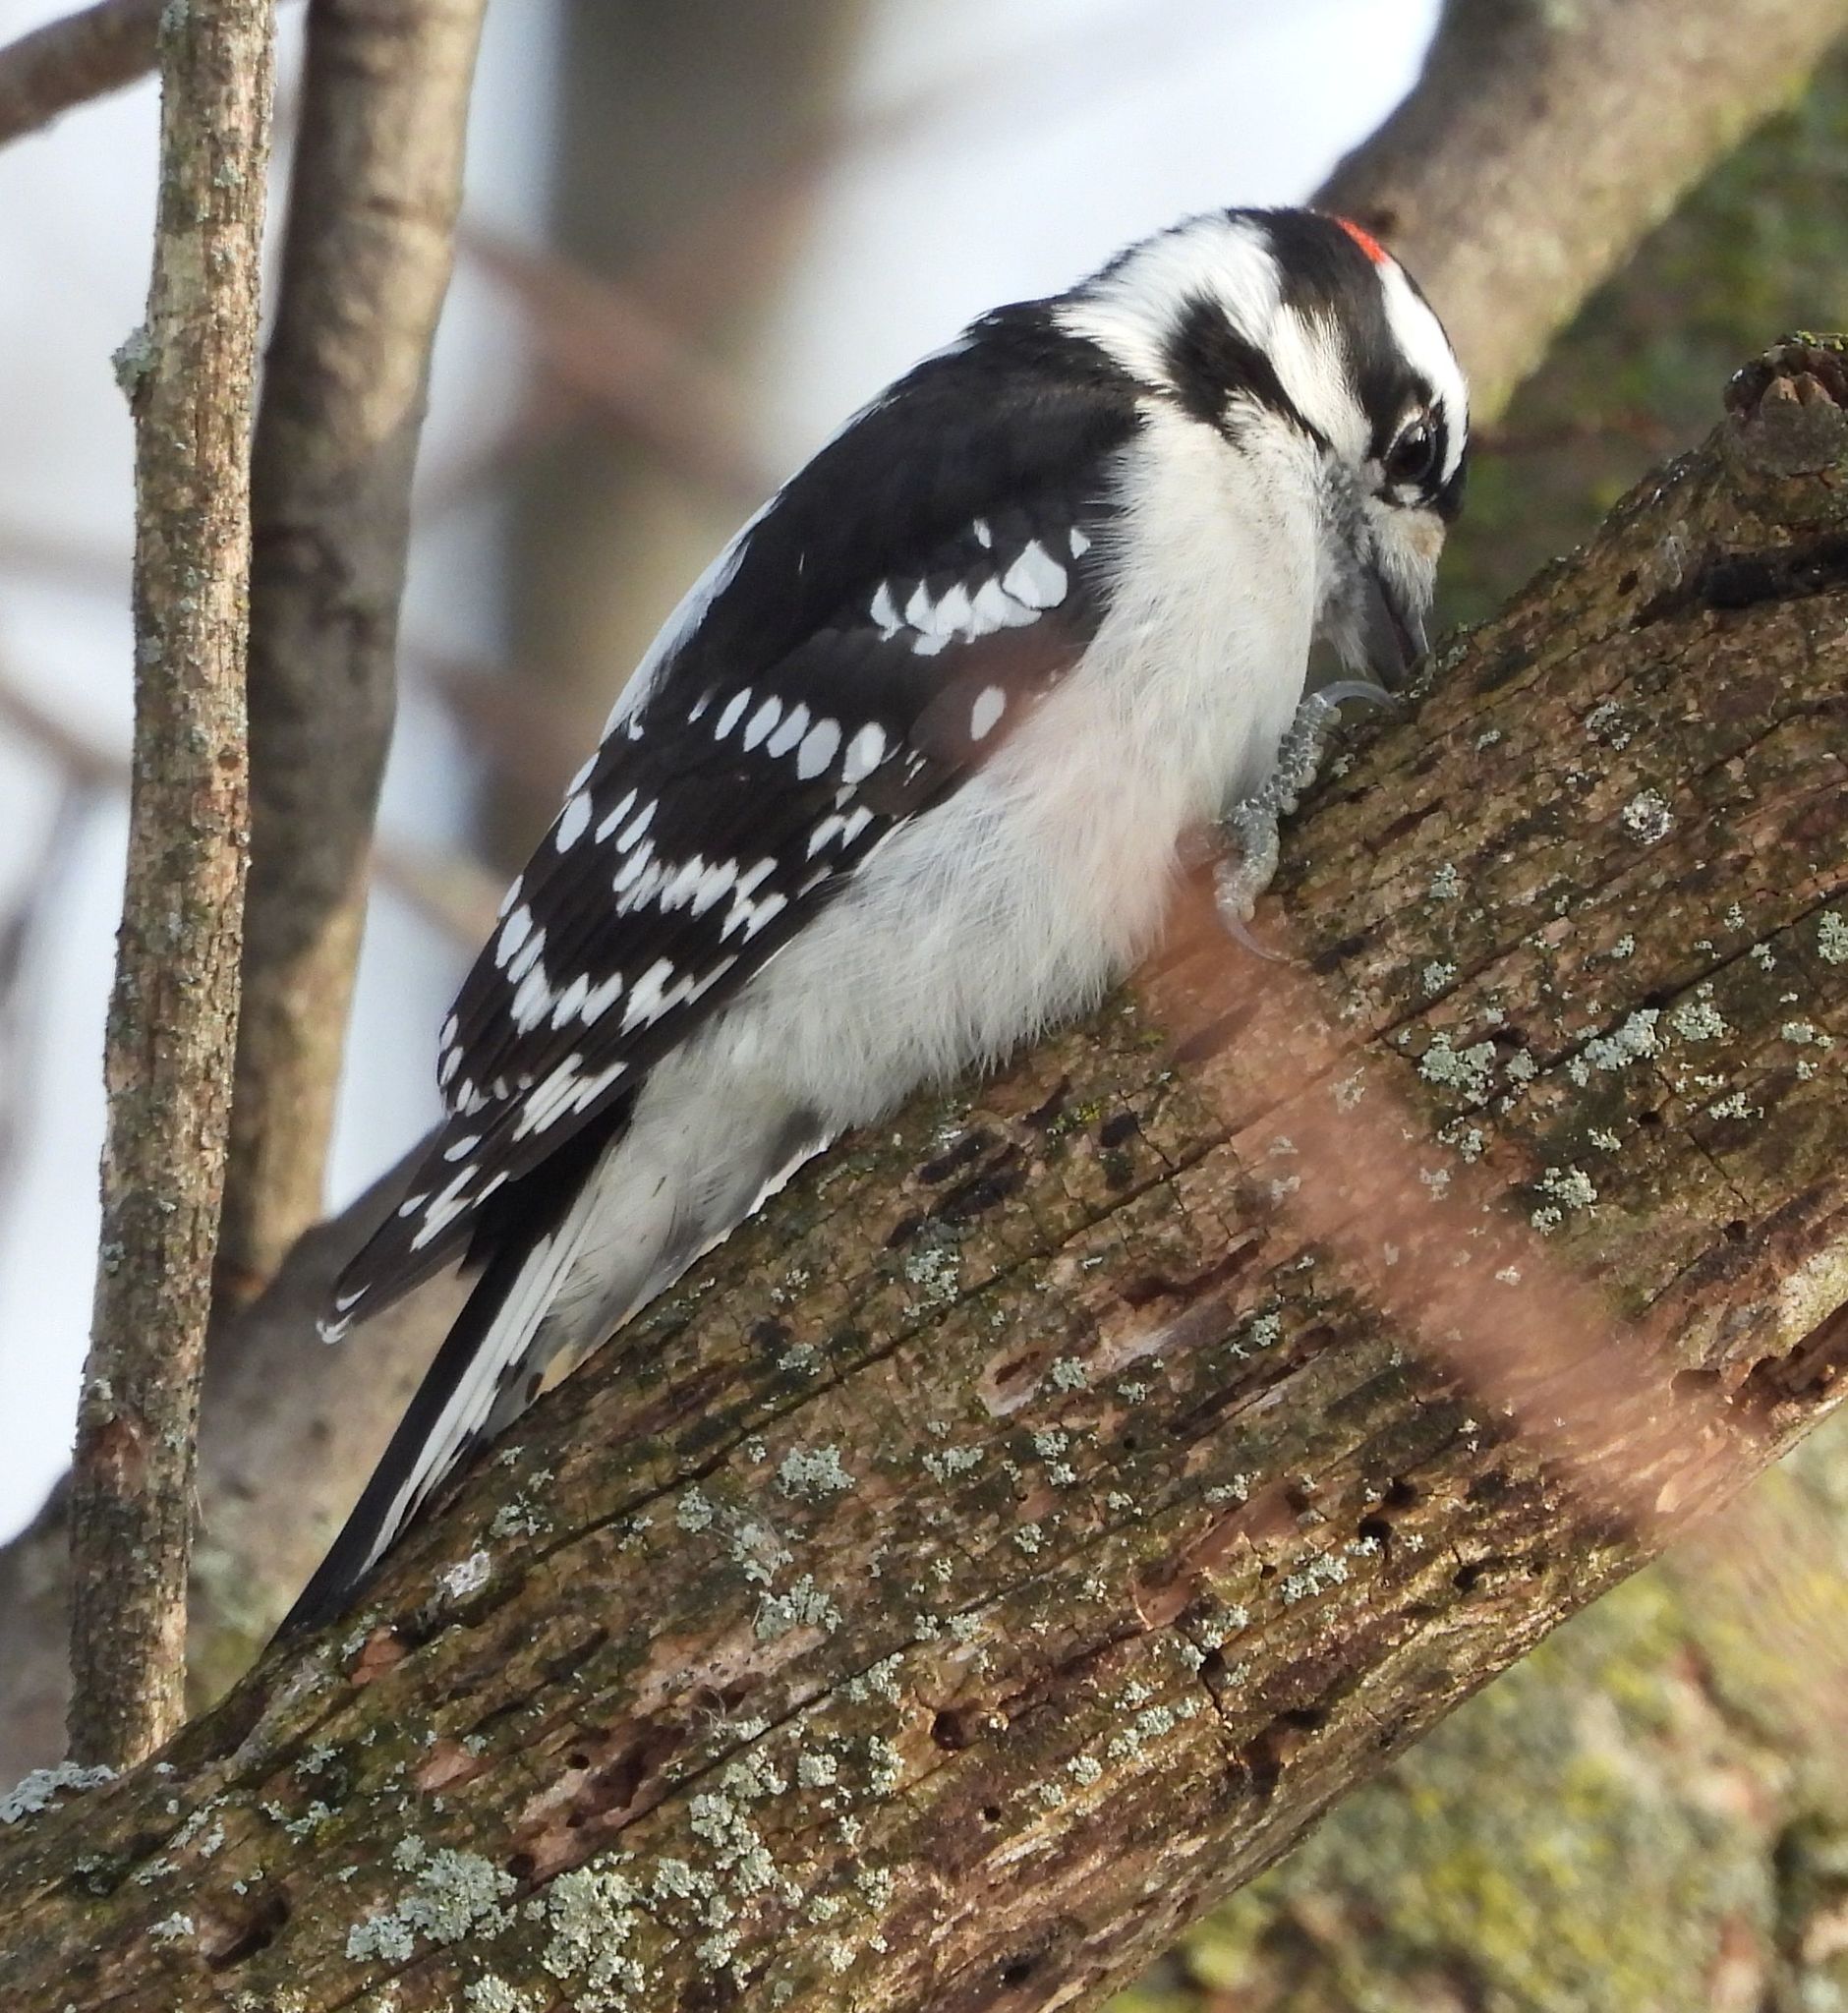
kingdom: Animalia
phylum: Chordata
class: Aves
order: Piciformes
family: Picidae
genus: Dryobates
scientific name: Dryobates pubescens
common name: Downy woodpecker
